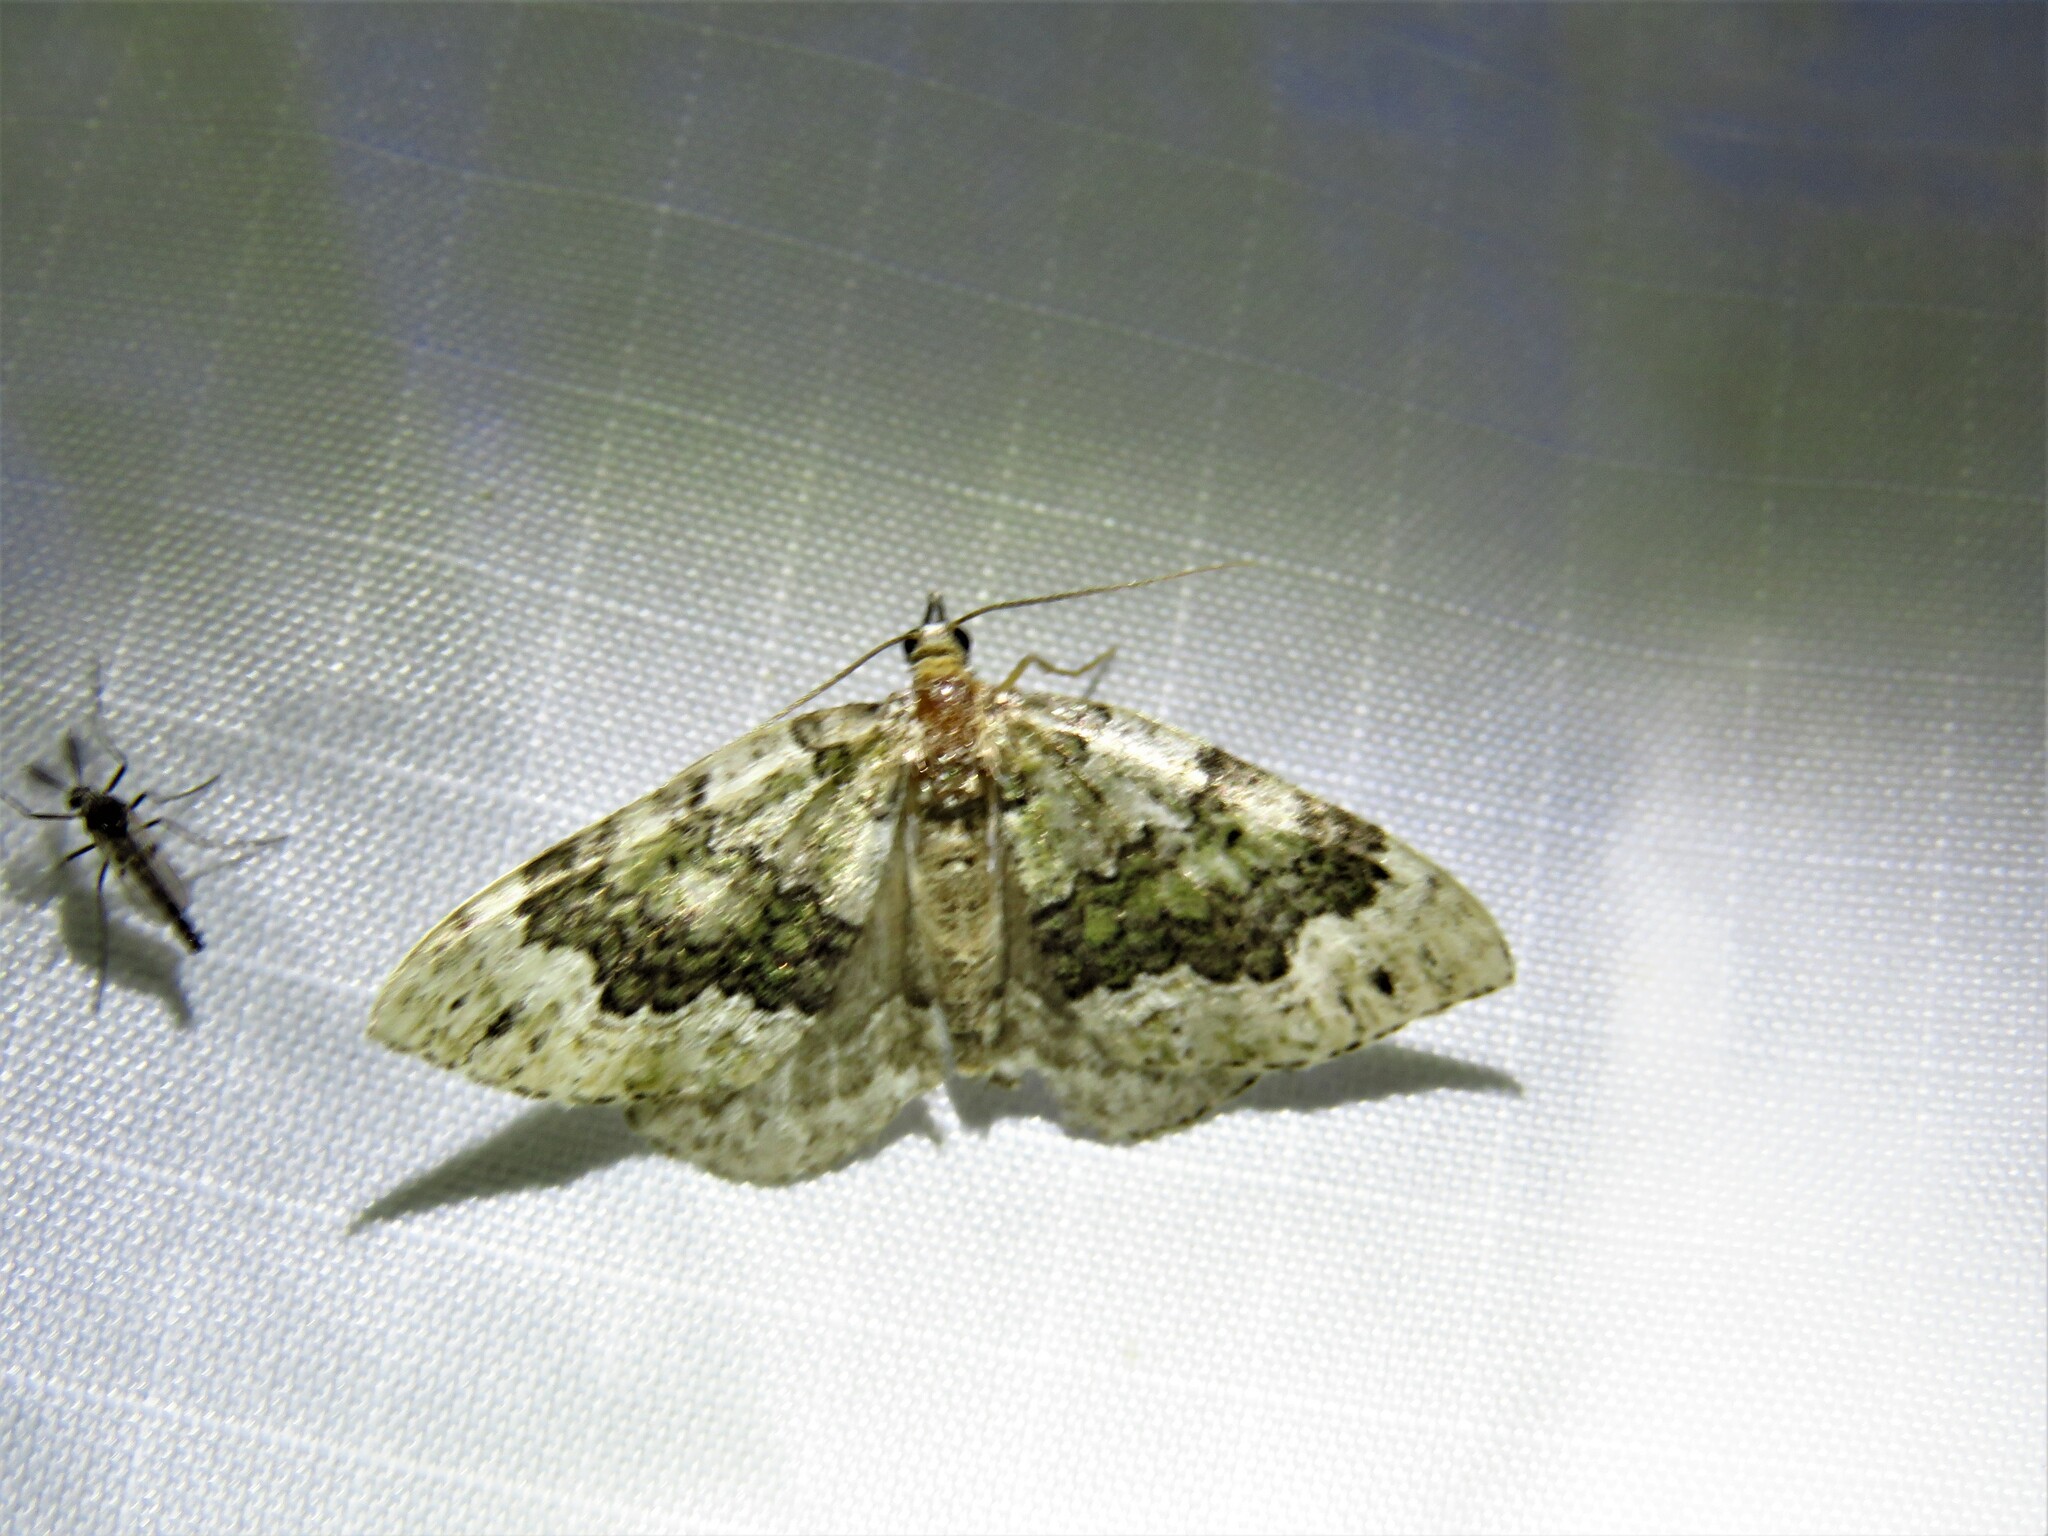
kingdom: Animalia
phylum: Arthropoda
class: Insecta
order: Lepidoptera
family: Geometridae
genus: Colostygia
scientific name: Colostygia olivata
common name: Beech-green carpet
